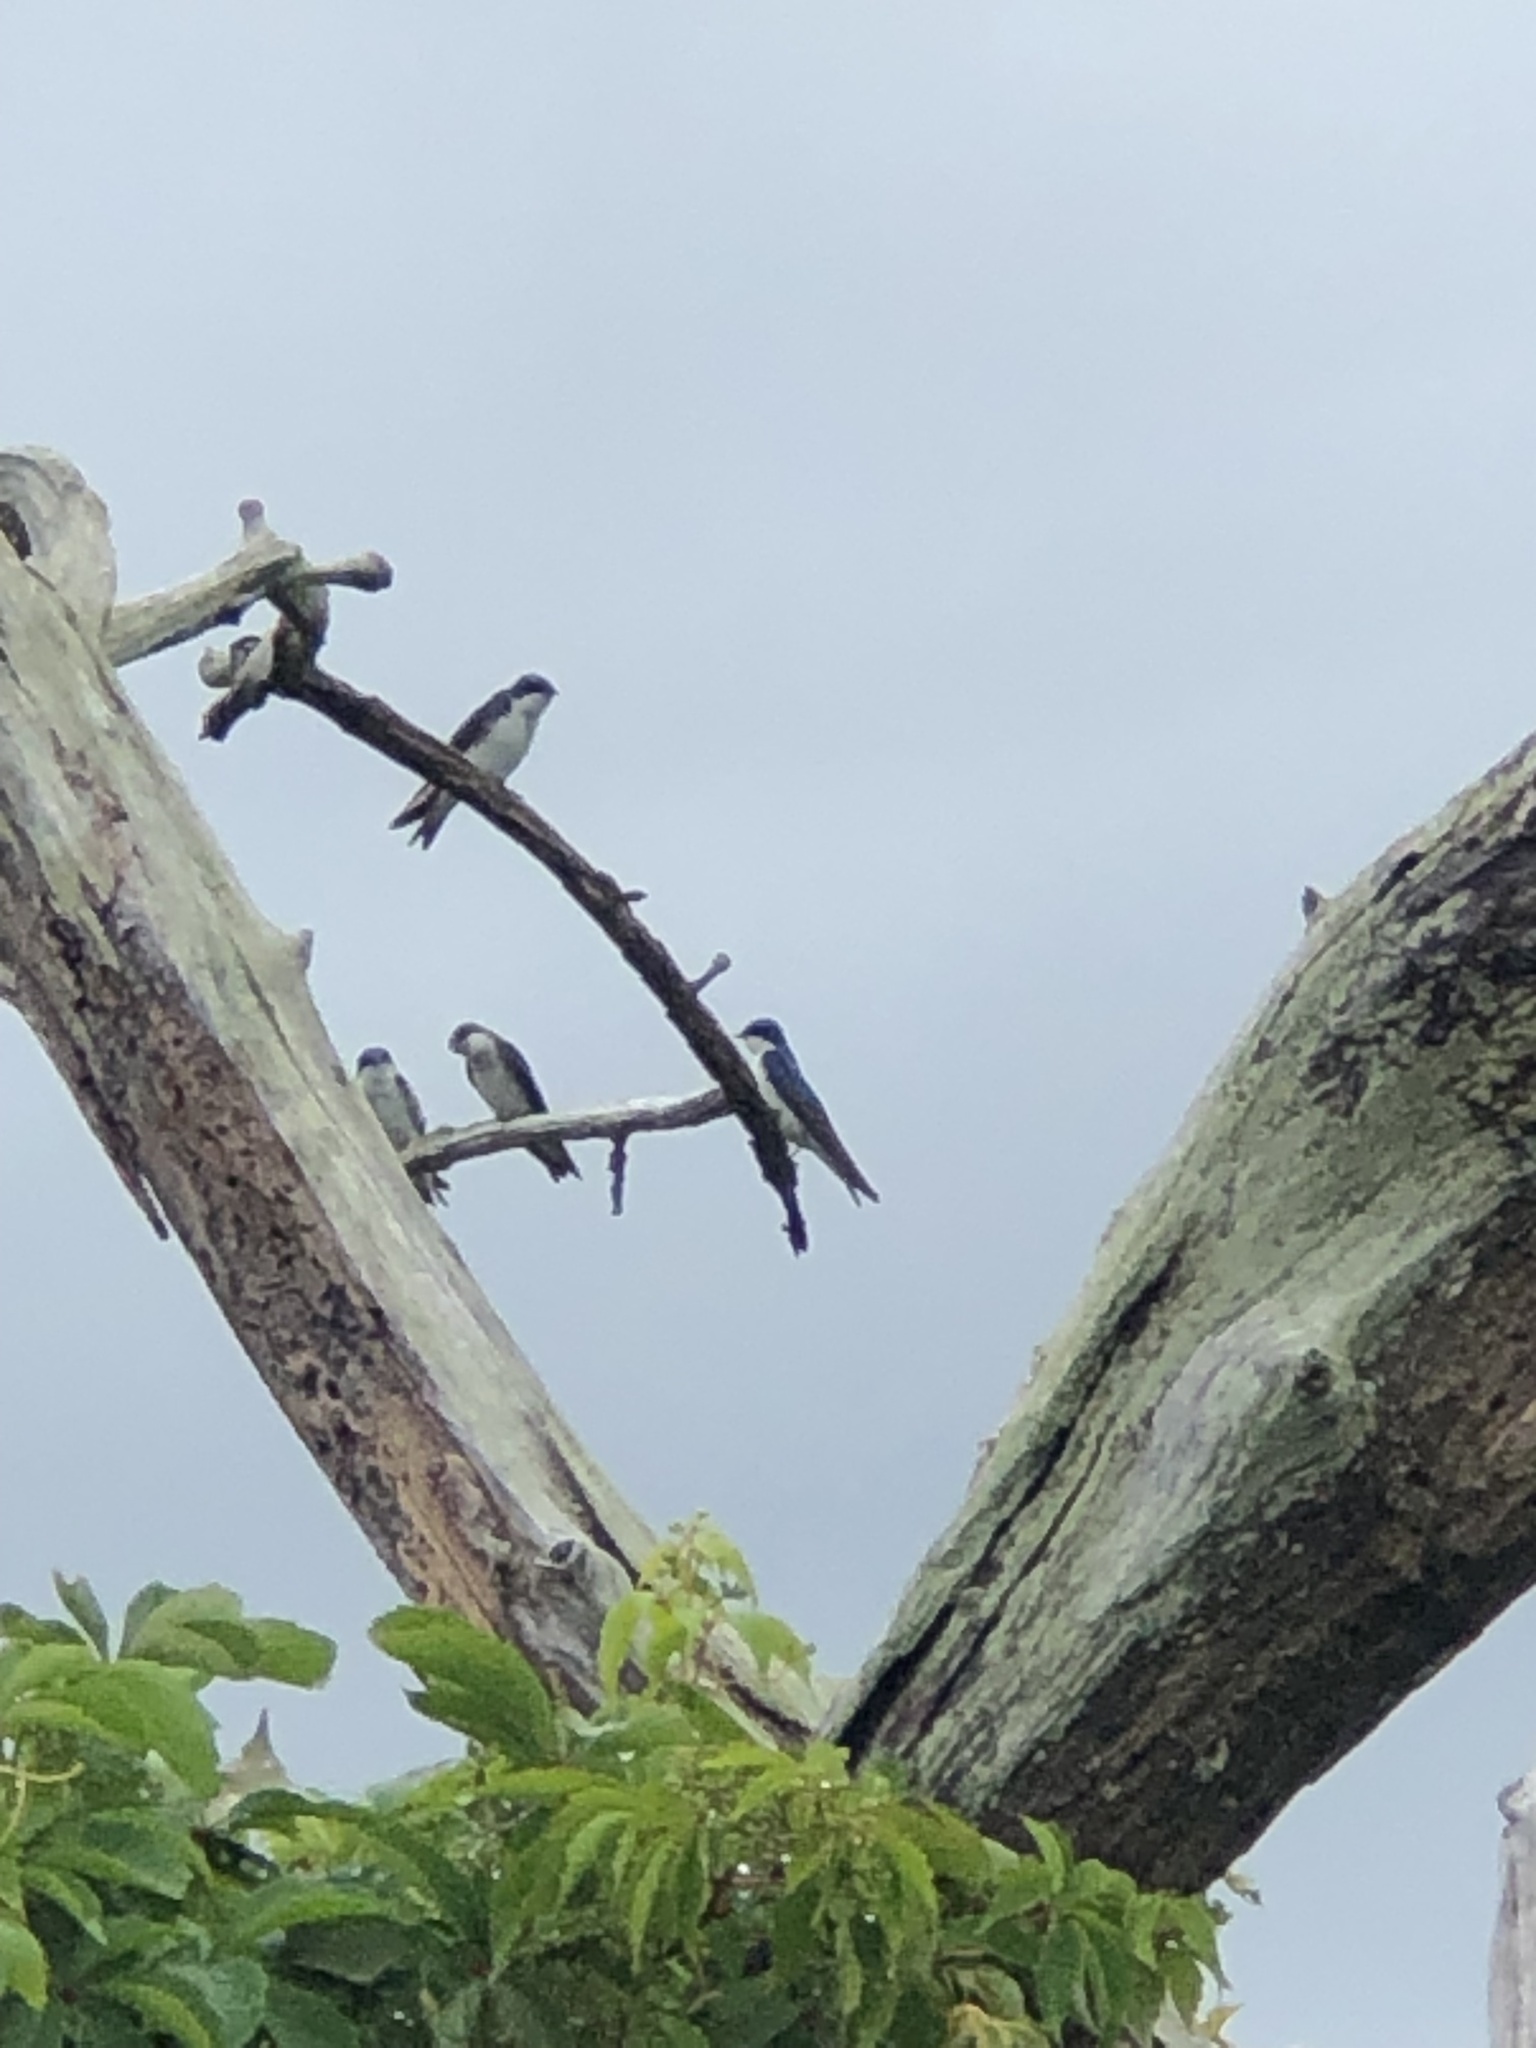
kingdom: Animalia
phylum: Chordata
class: Aves
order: Passeriformes
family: Hirundinidae
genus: Tachycineta
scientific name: Tachycineta bicolor
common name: Tree swallow
